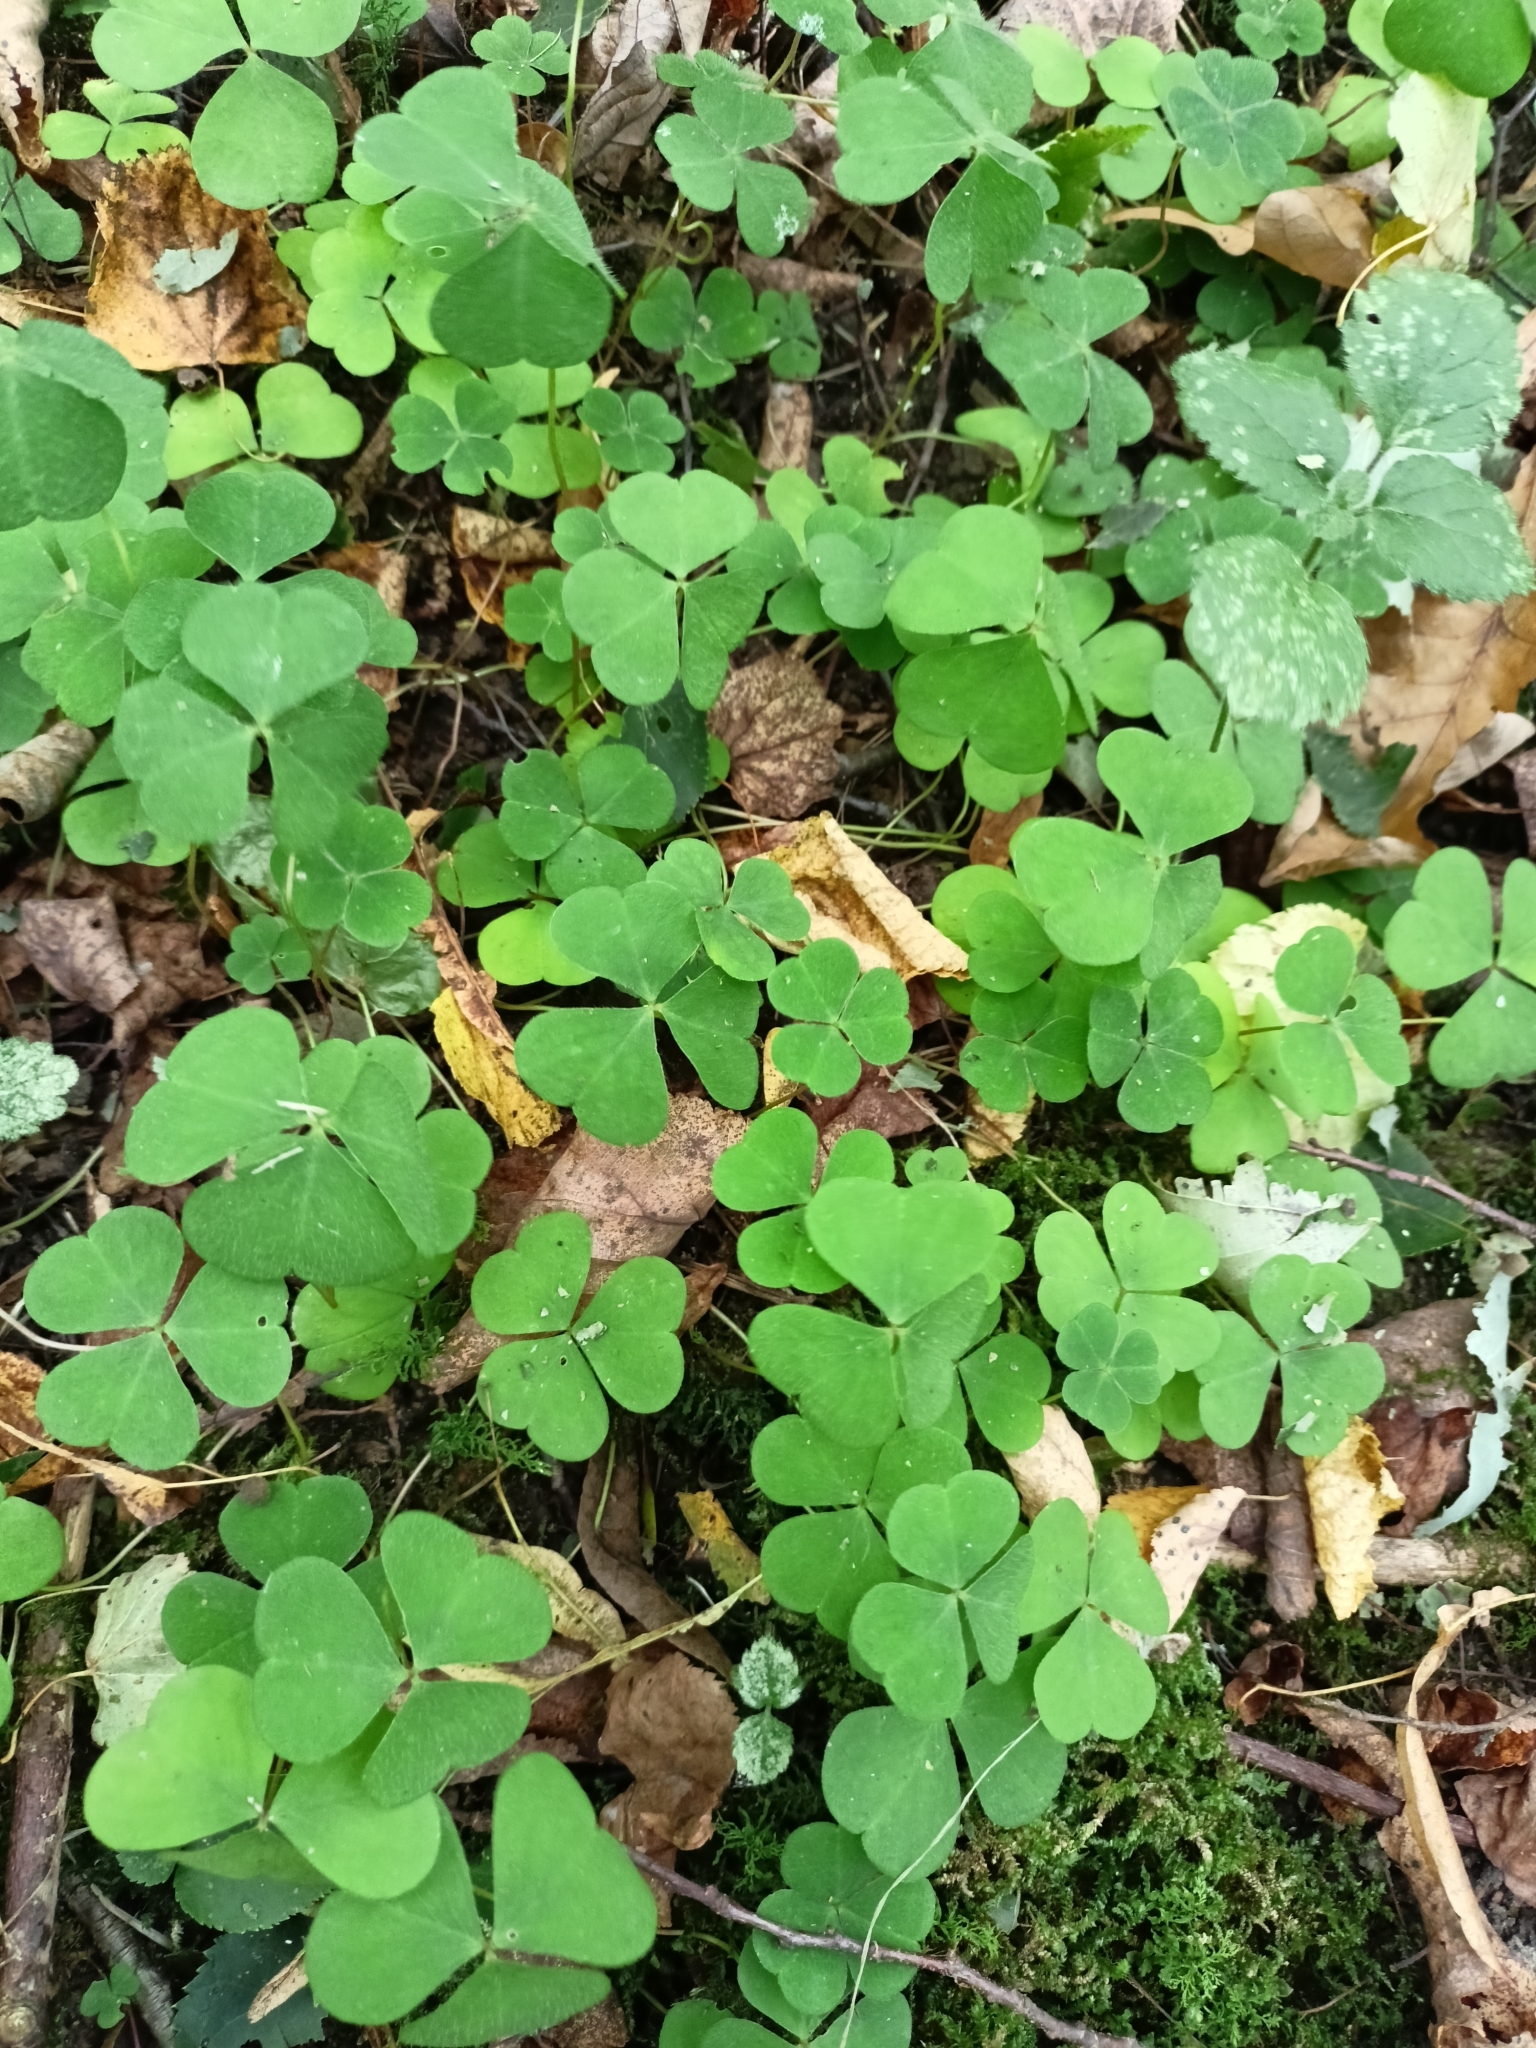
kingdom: Plantae
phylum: Tracheophyta
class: Magnoliopsida
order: Oxalidales
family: Oxalidaceae
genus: Oxalis
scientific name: Oxalis acetosella
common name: Wood-sorrel
